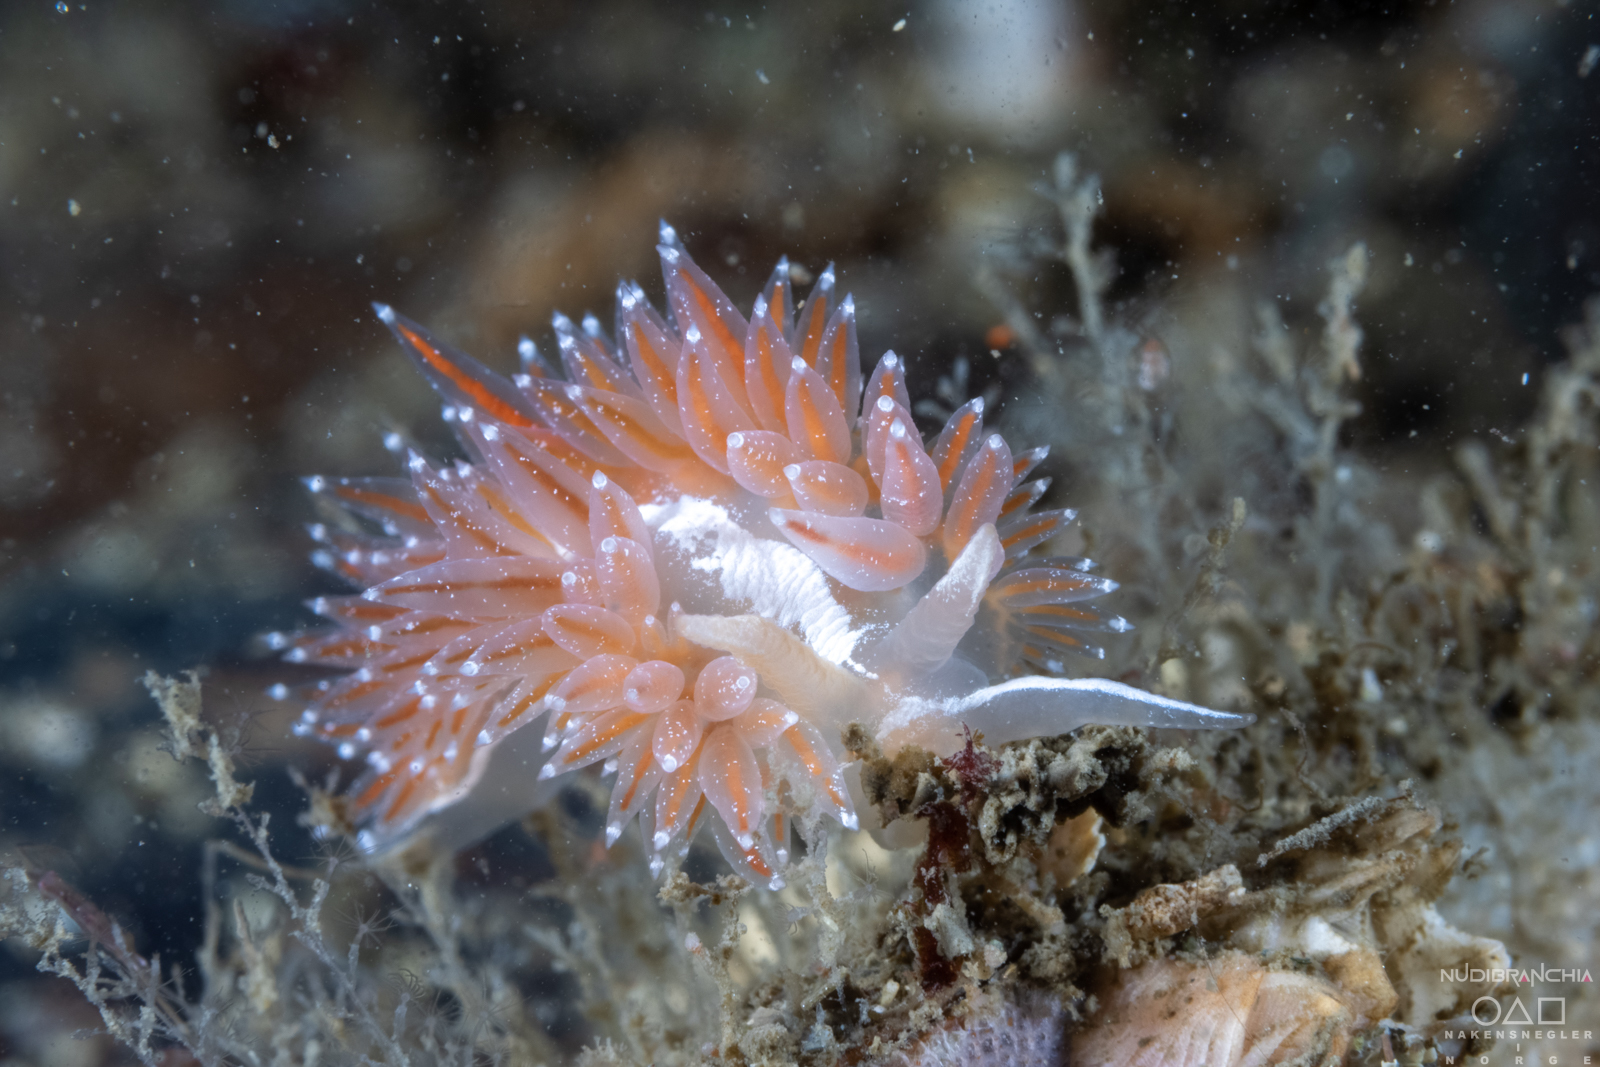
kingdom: Animalia
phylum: Mollusca
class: Gastropoda
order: Nudibranchia
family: Coryphellidae
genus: Coryphella
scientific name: Coryphella monicae
